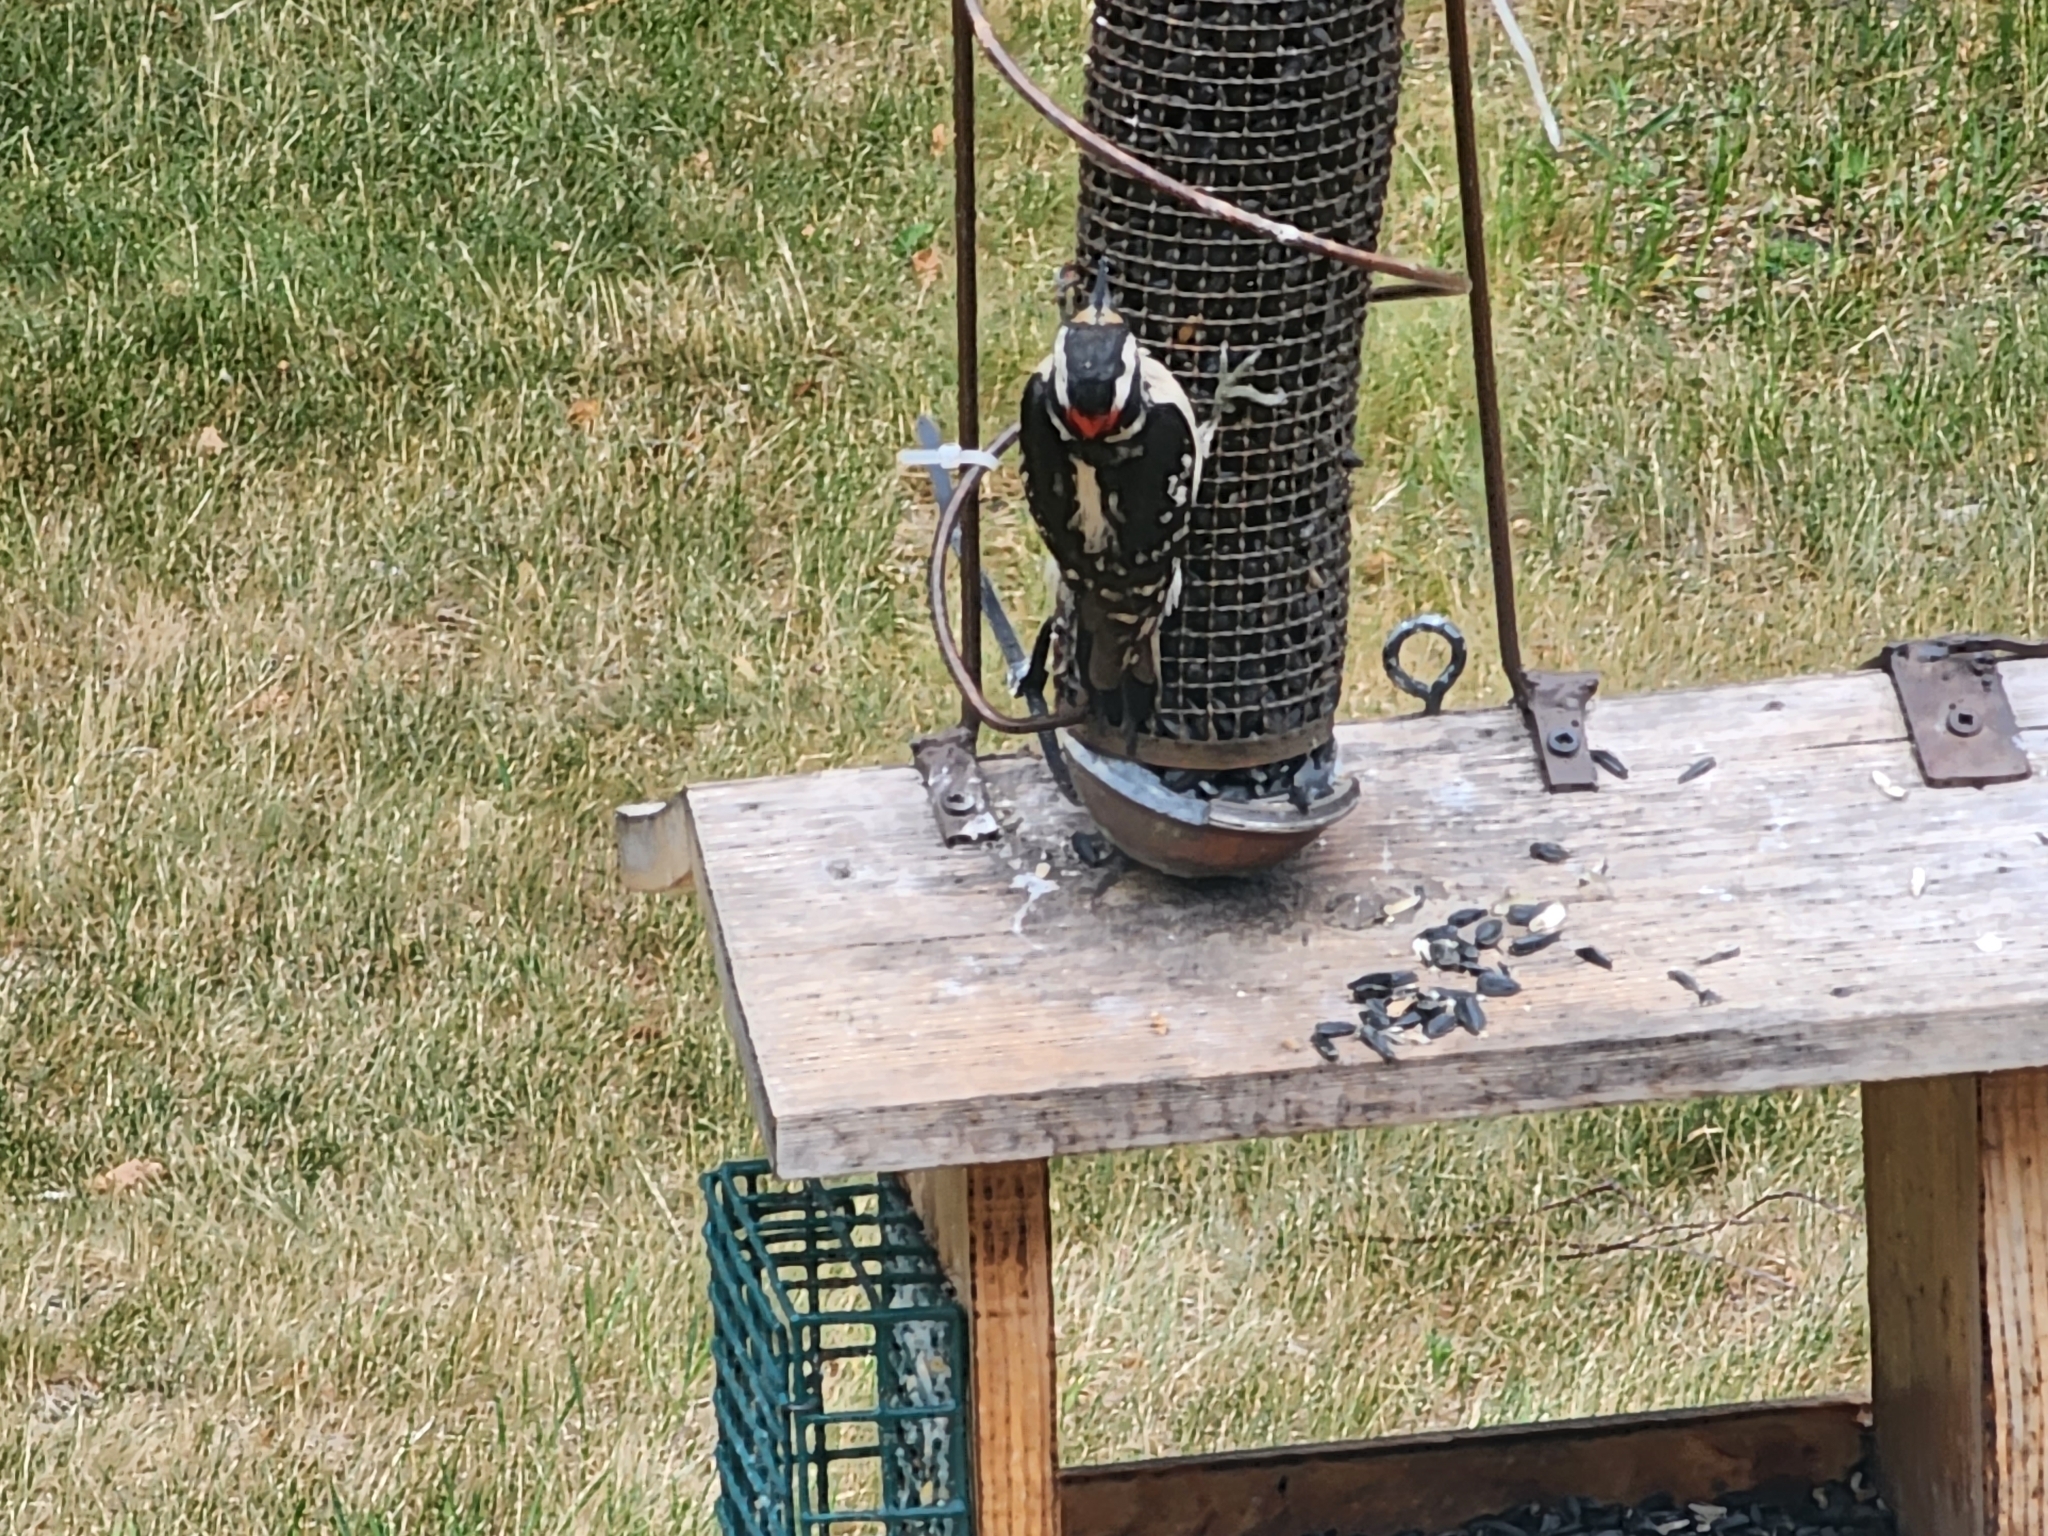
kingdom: Animalia
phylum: Chordata
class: Aves
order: Piciformes
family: Picidae
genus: Leuconotopicus
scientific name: Leuconotopicus villosus
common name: Hairy woodpecker
